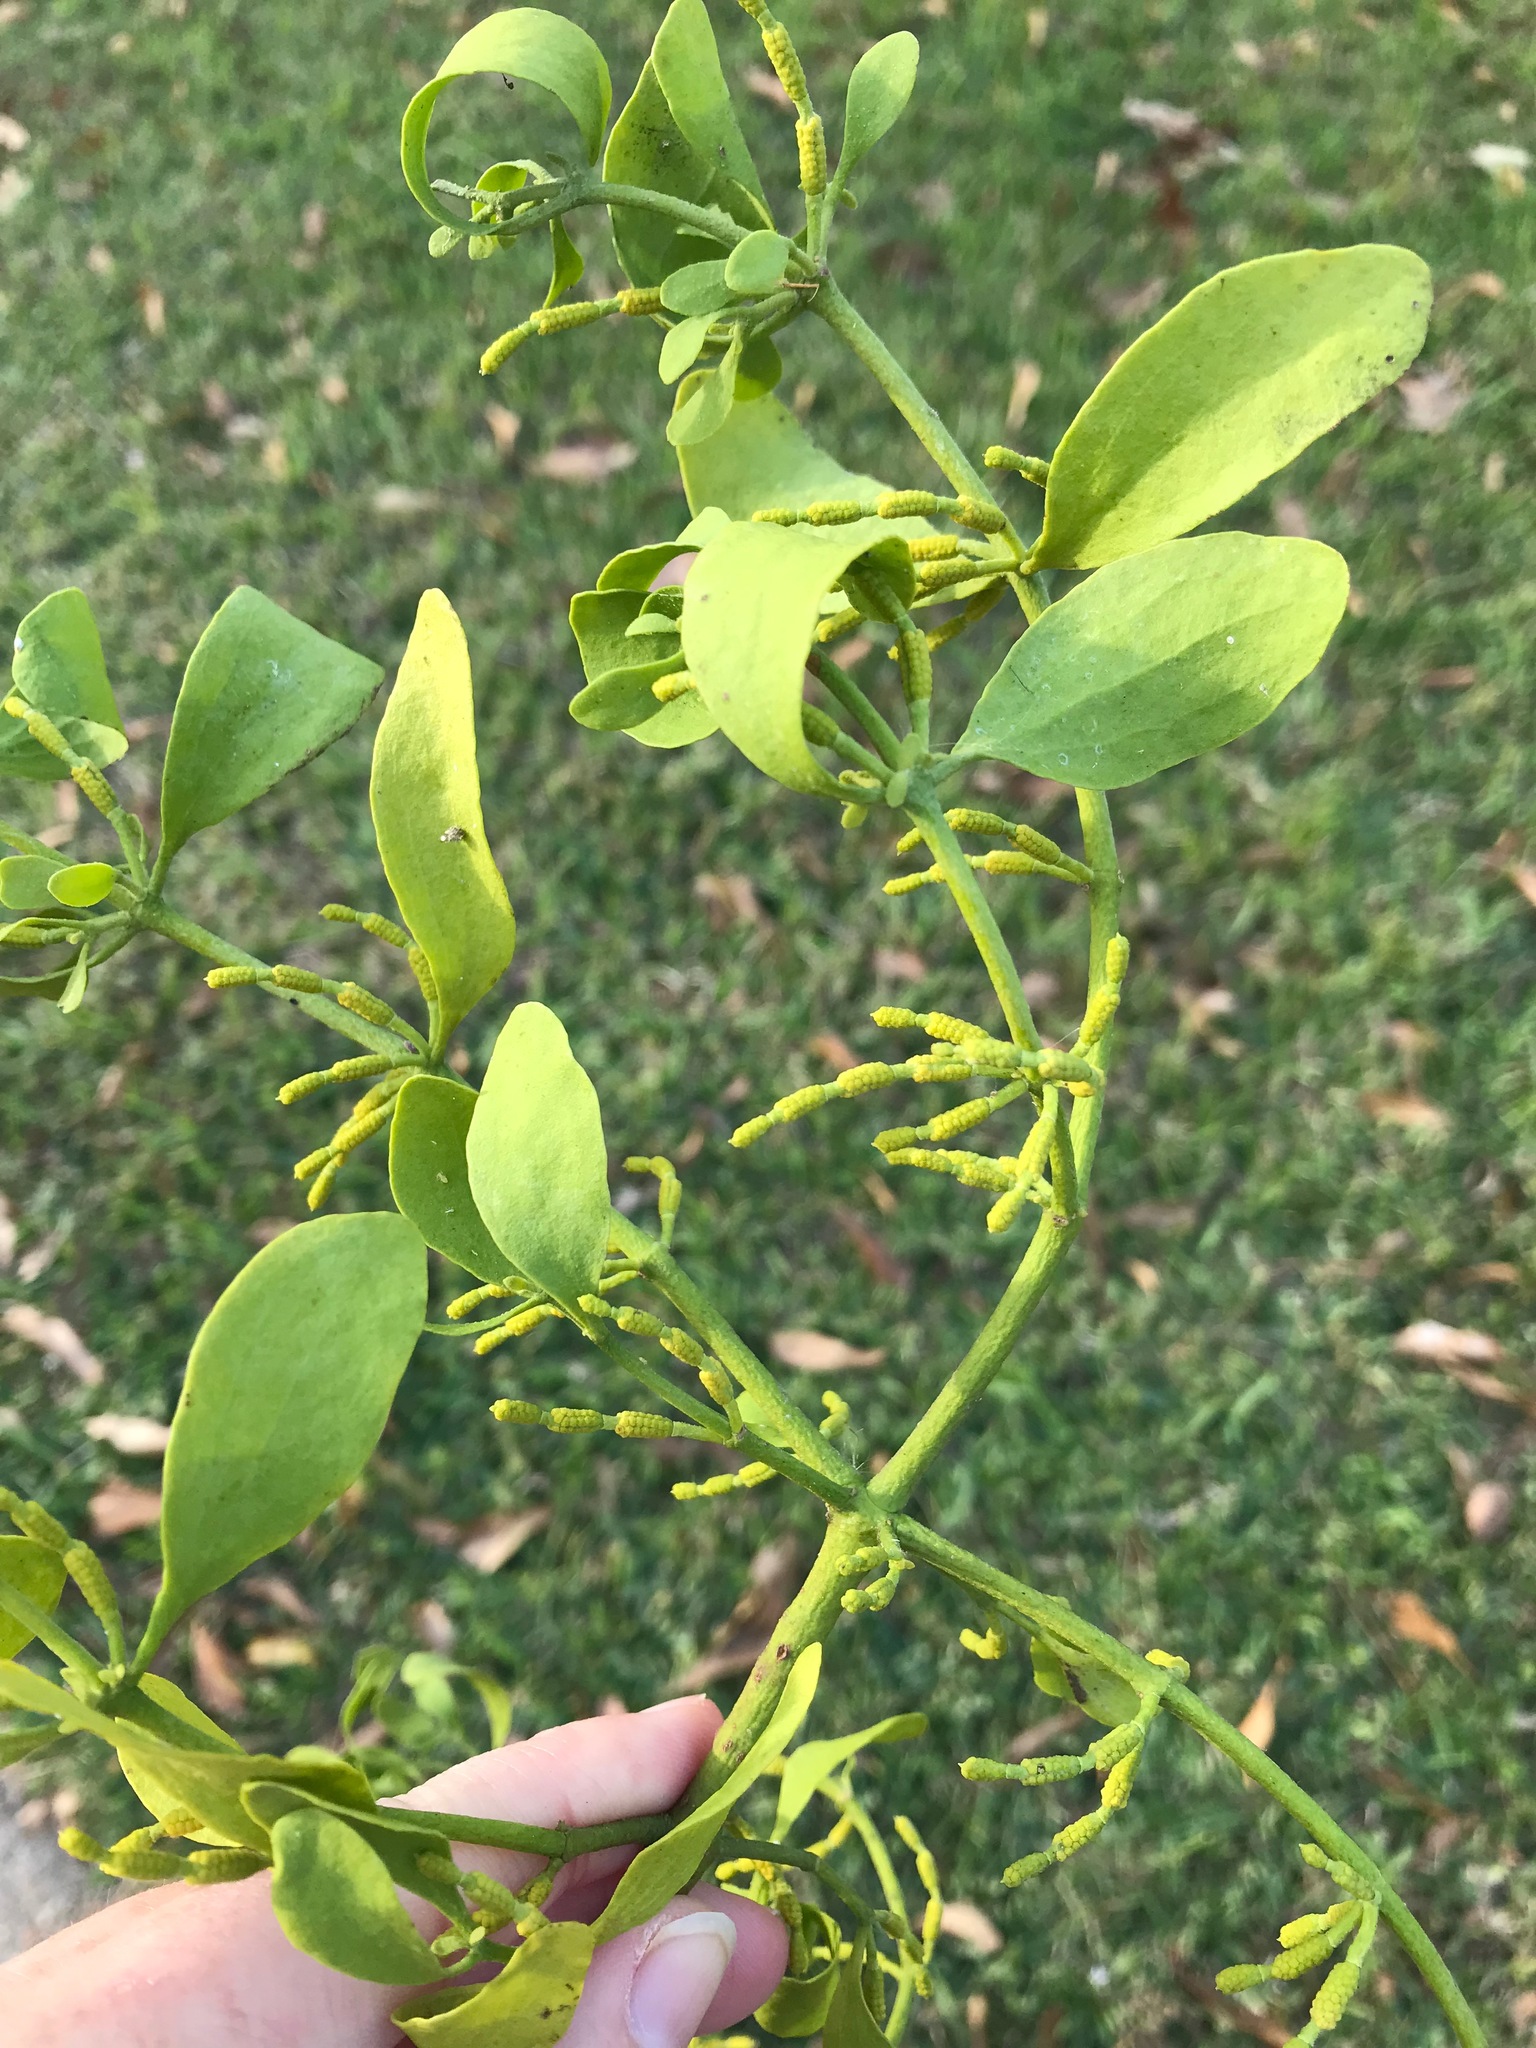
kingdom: Plantae
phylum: Tracheophyta
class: Magnoliopsida
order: Santalales
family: Viscaceae
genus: Phoradendron
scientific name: Phoradendron leucarpum
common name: Pacific mistletoe
